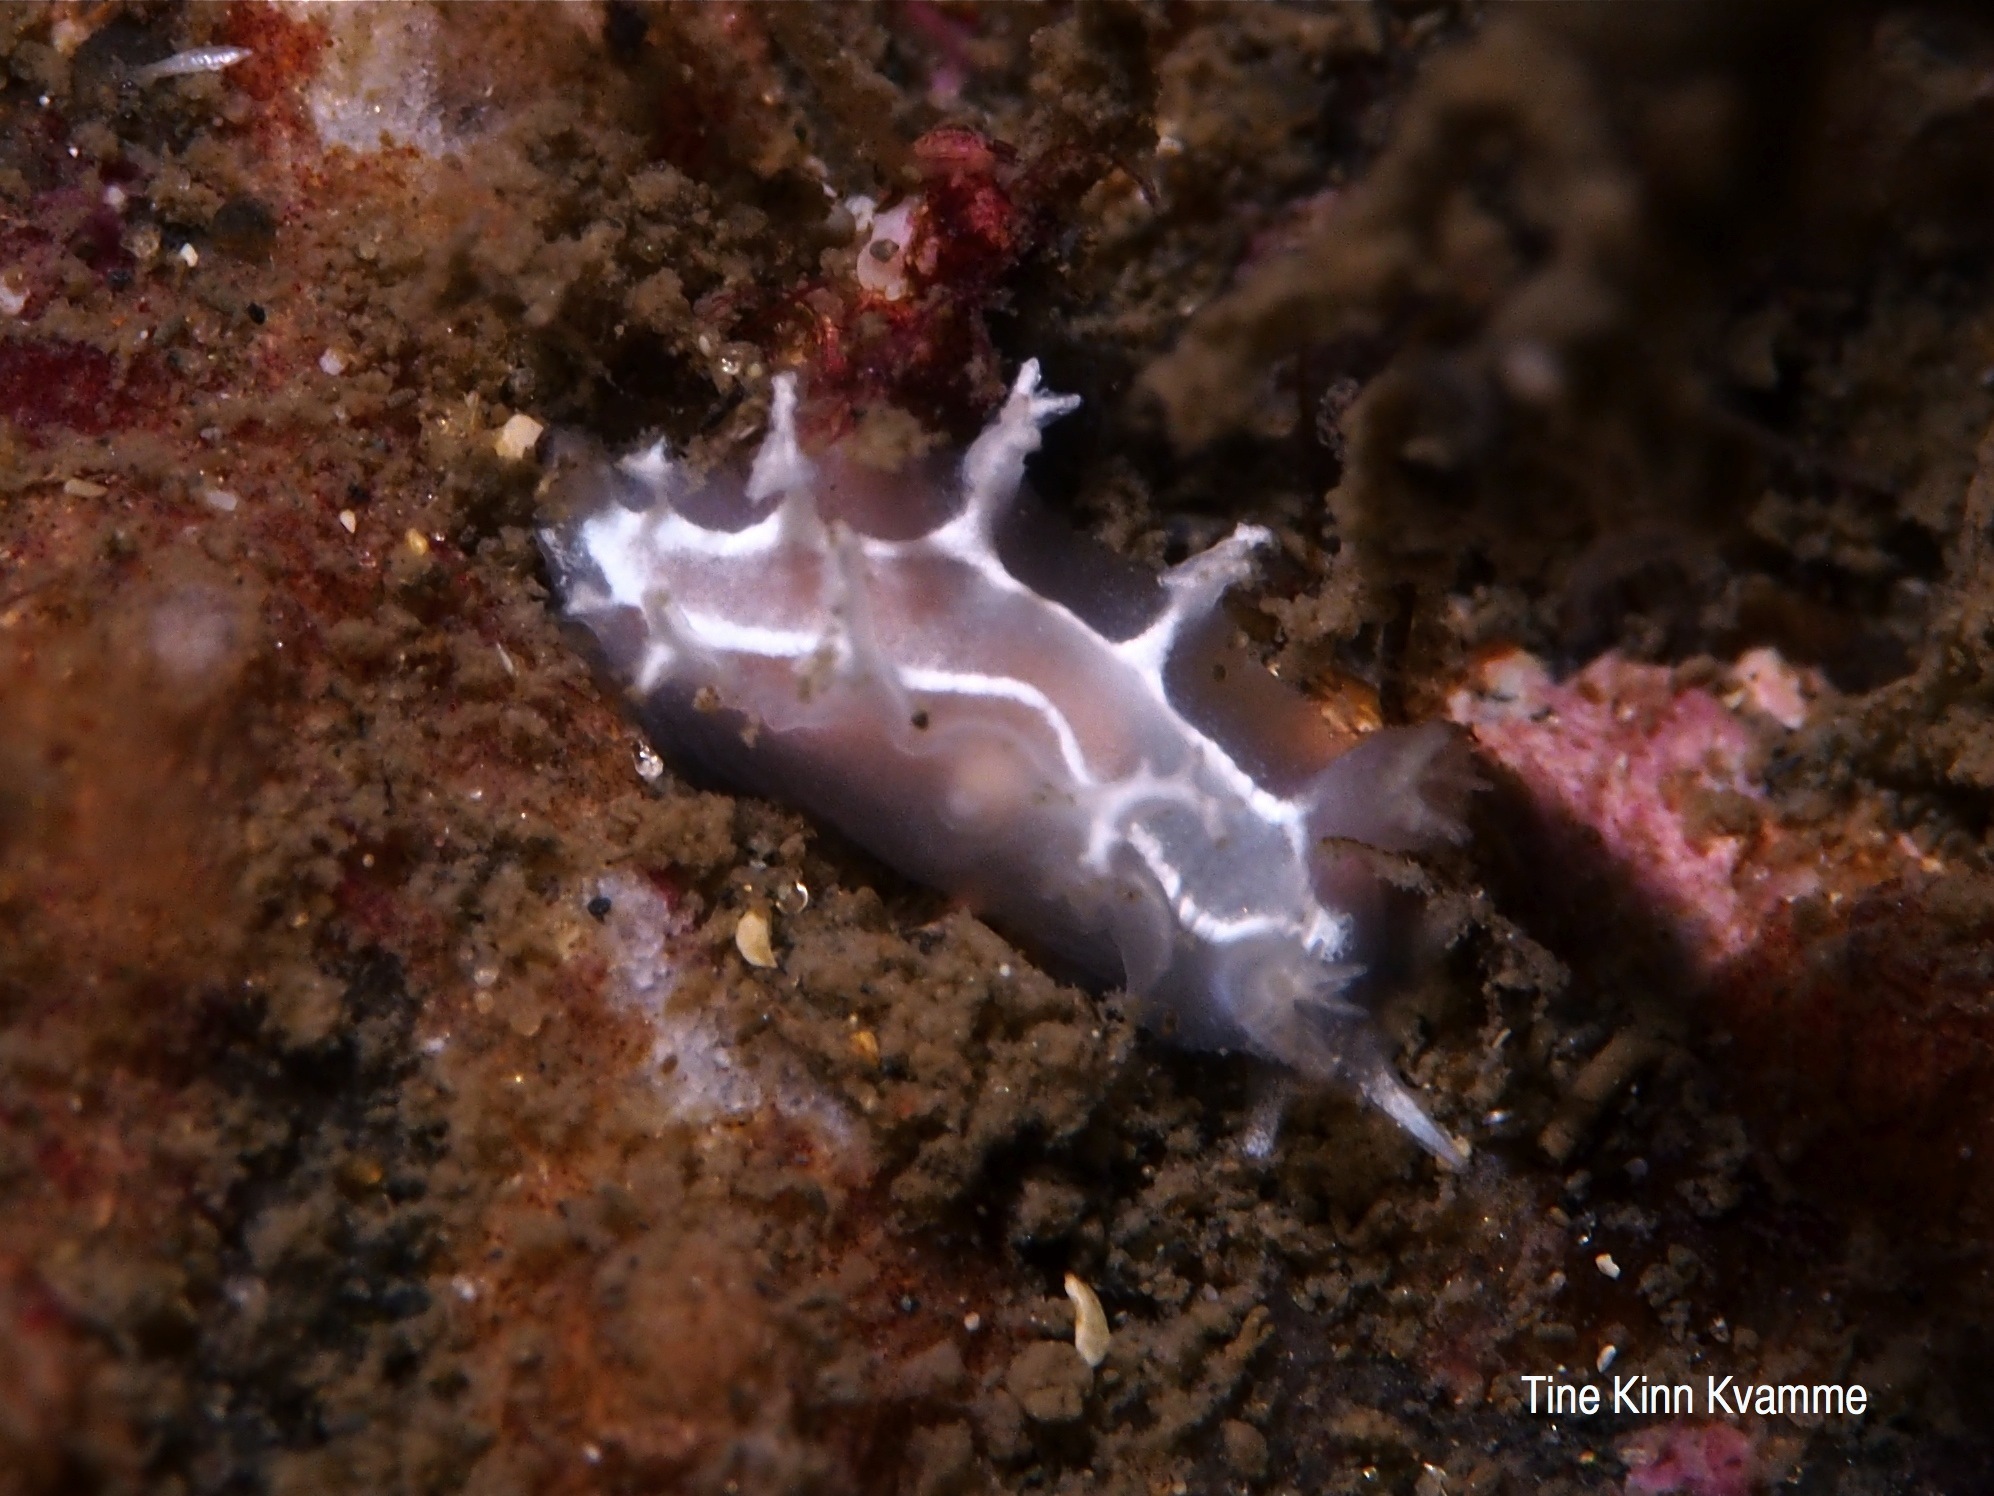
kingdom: Animalia
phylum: Mollusca
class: Gastropoda
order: Nudibranchia
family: Tritoniidae
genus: Duvaucelia
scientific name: Duvaucelia lineata
